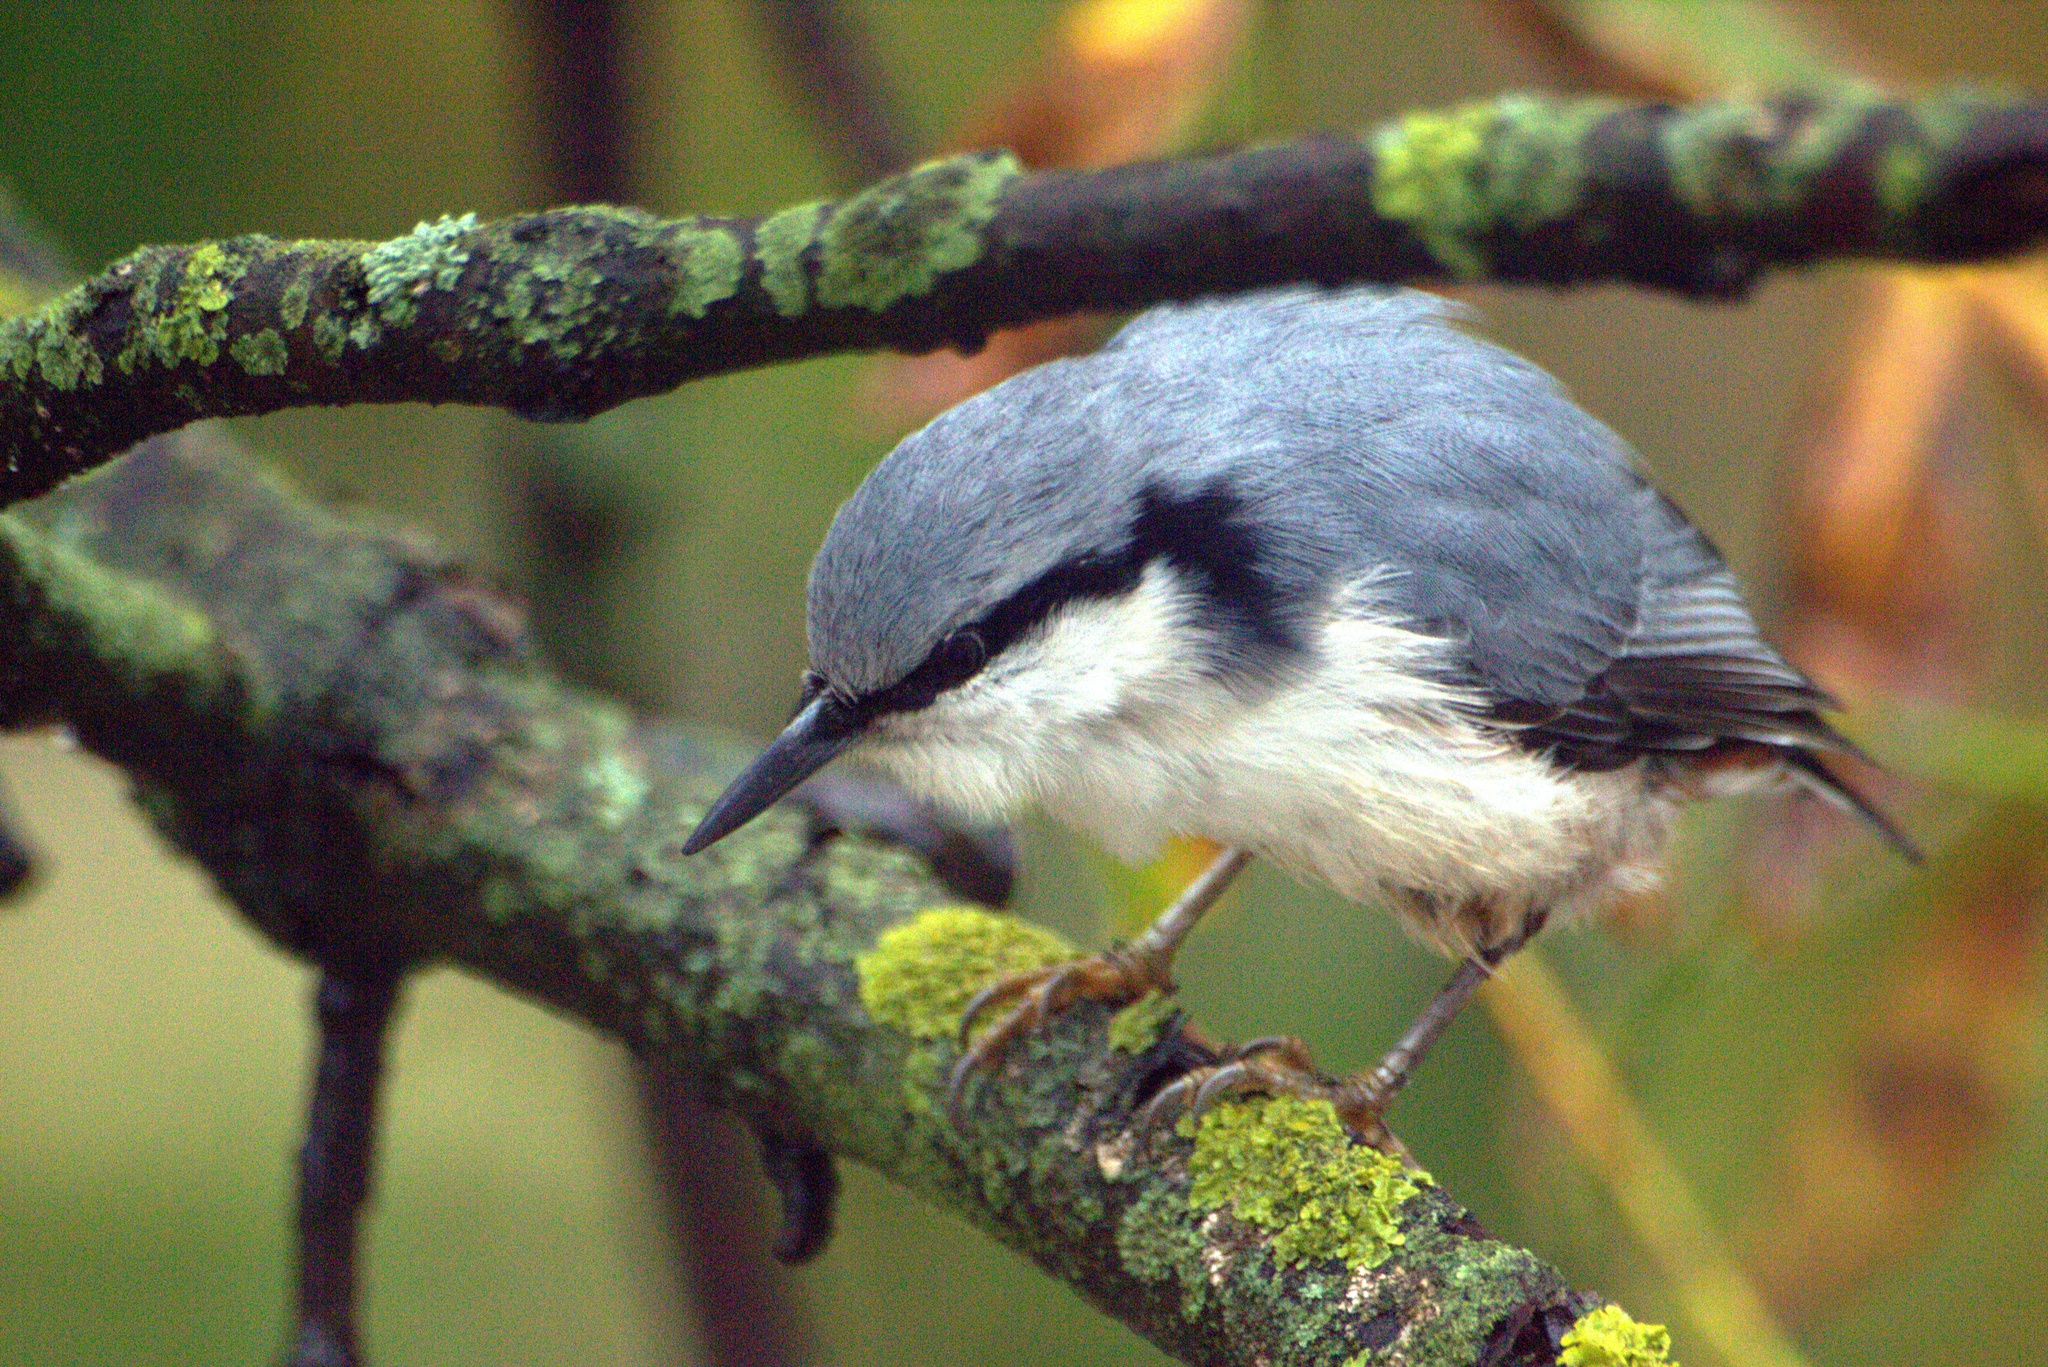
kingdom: Animalia
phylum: Chordata
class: Aves
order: Passeriformes
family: Sittidae
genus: Sitta
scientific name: Sitta europaea
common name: Eurasian nuthatch
